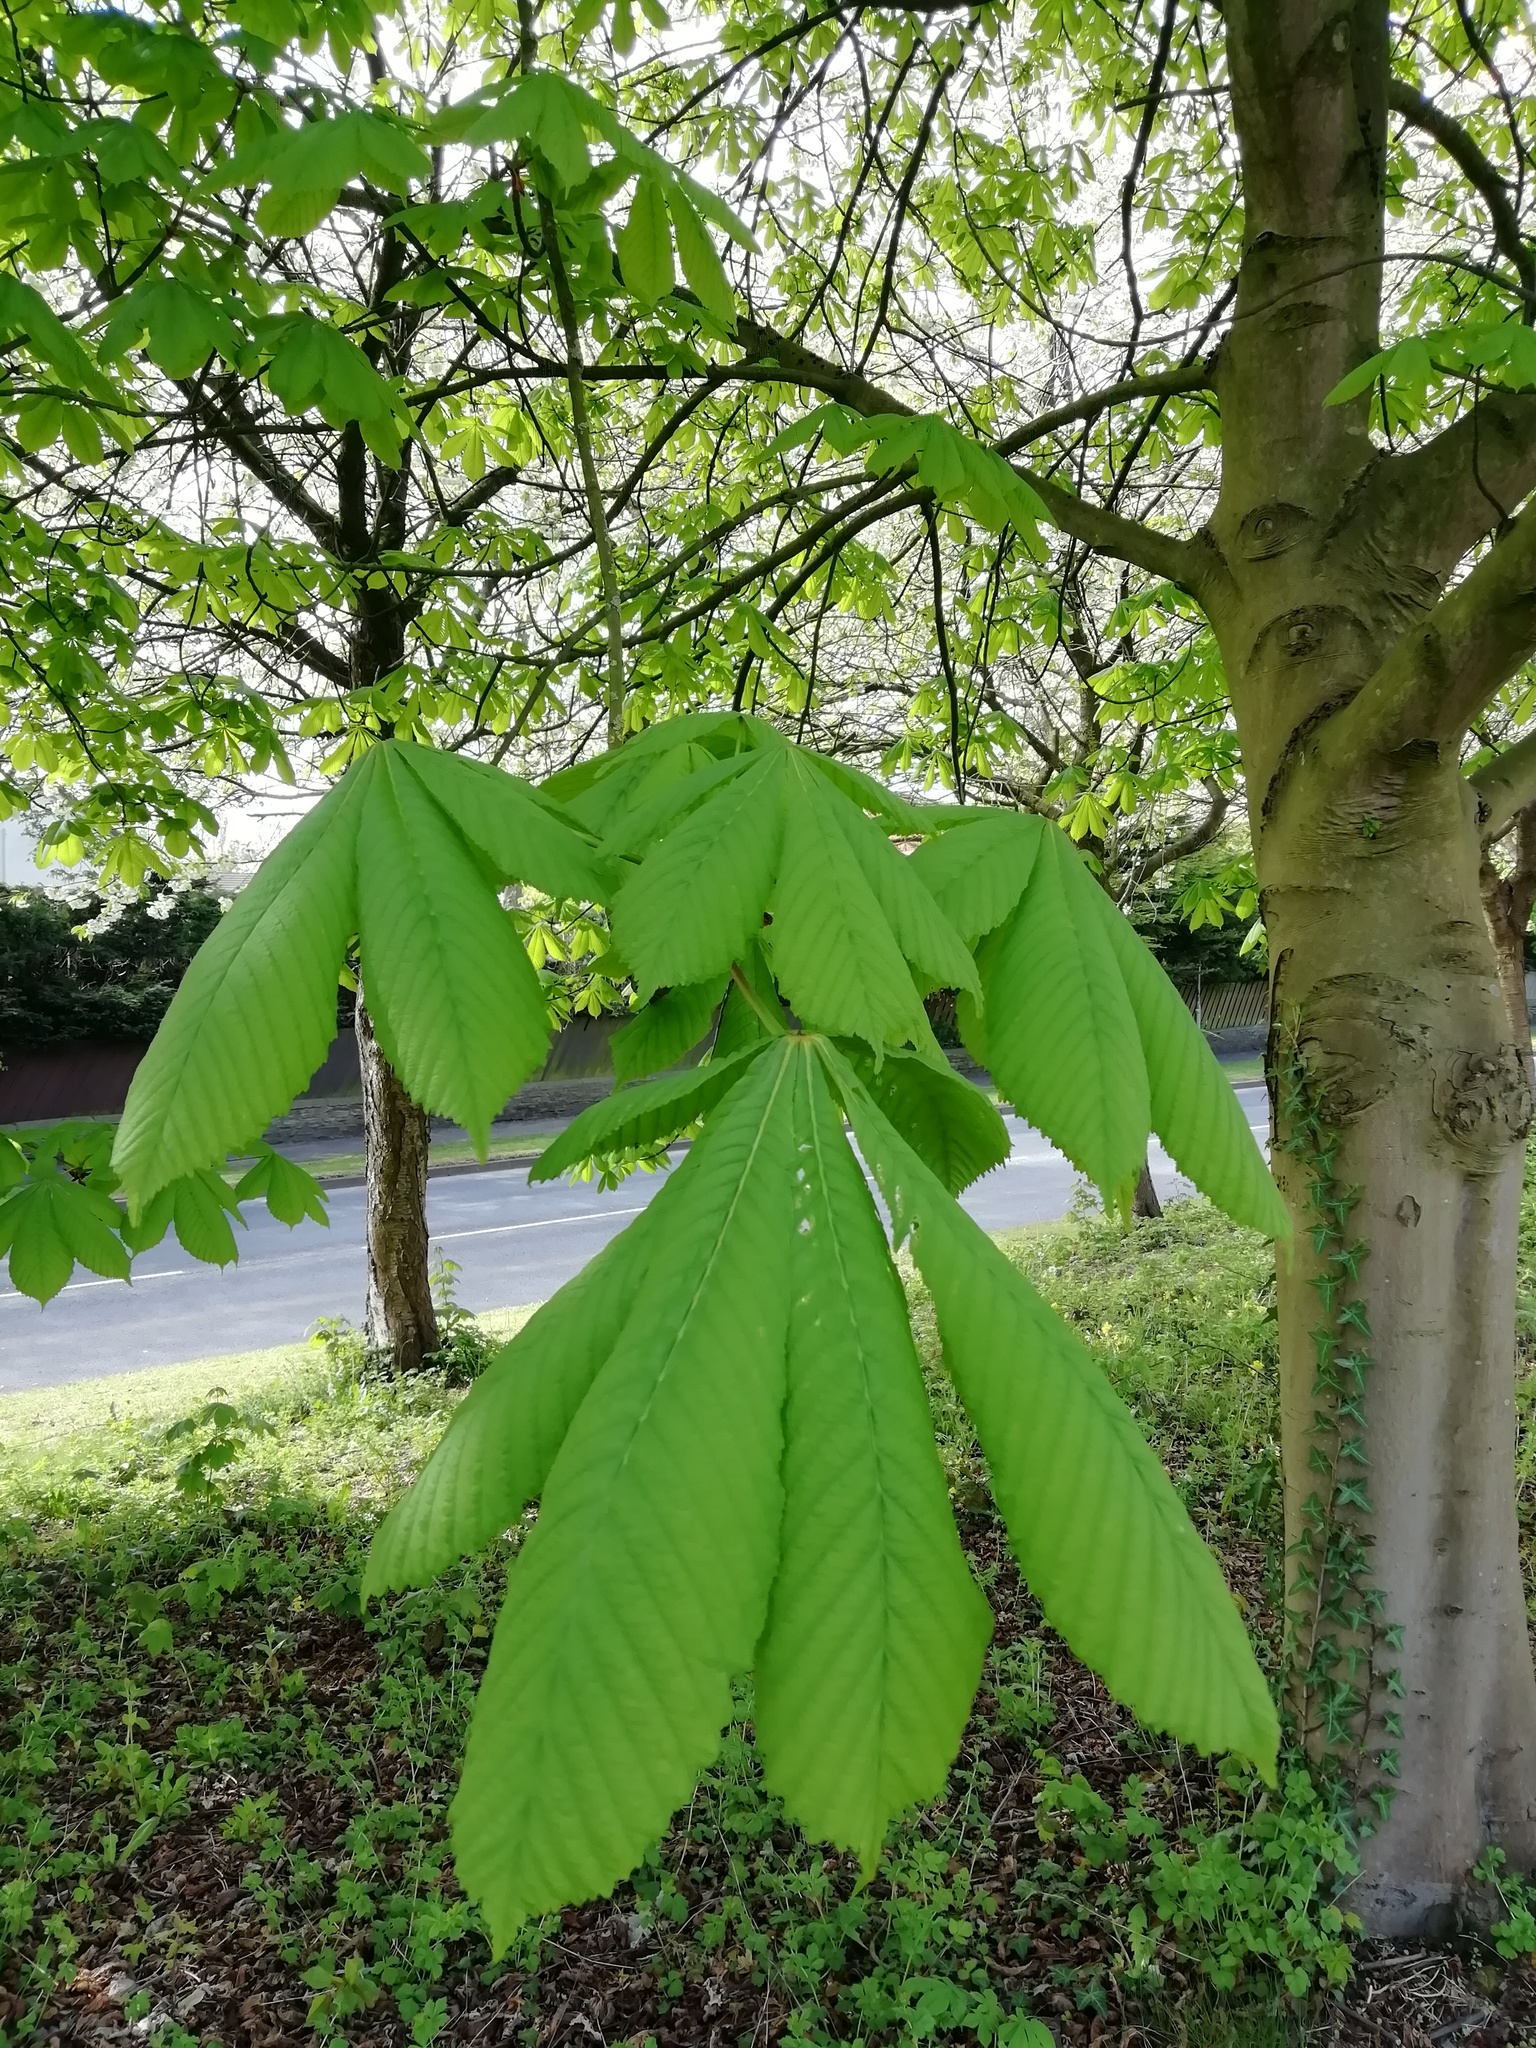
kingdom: Plantae
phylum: Tracheophyta
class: Magnoliopsida
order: Sapindales
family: Sapindaceae
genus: Aesculus
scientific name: Aesculus hippocastanum
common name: Horse-chestnut
